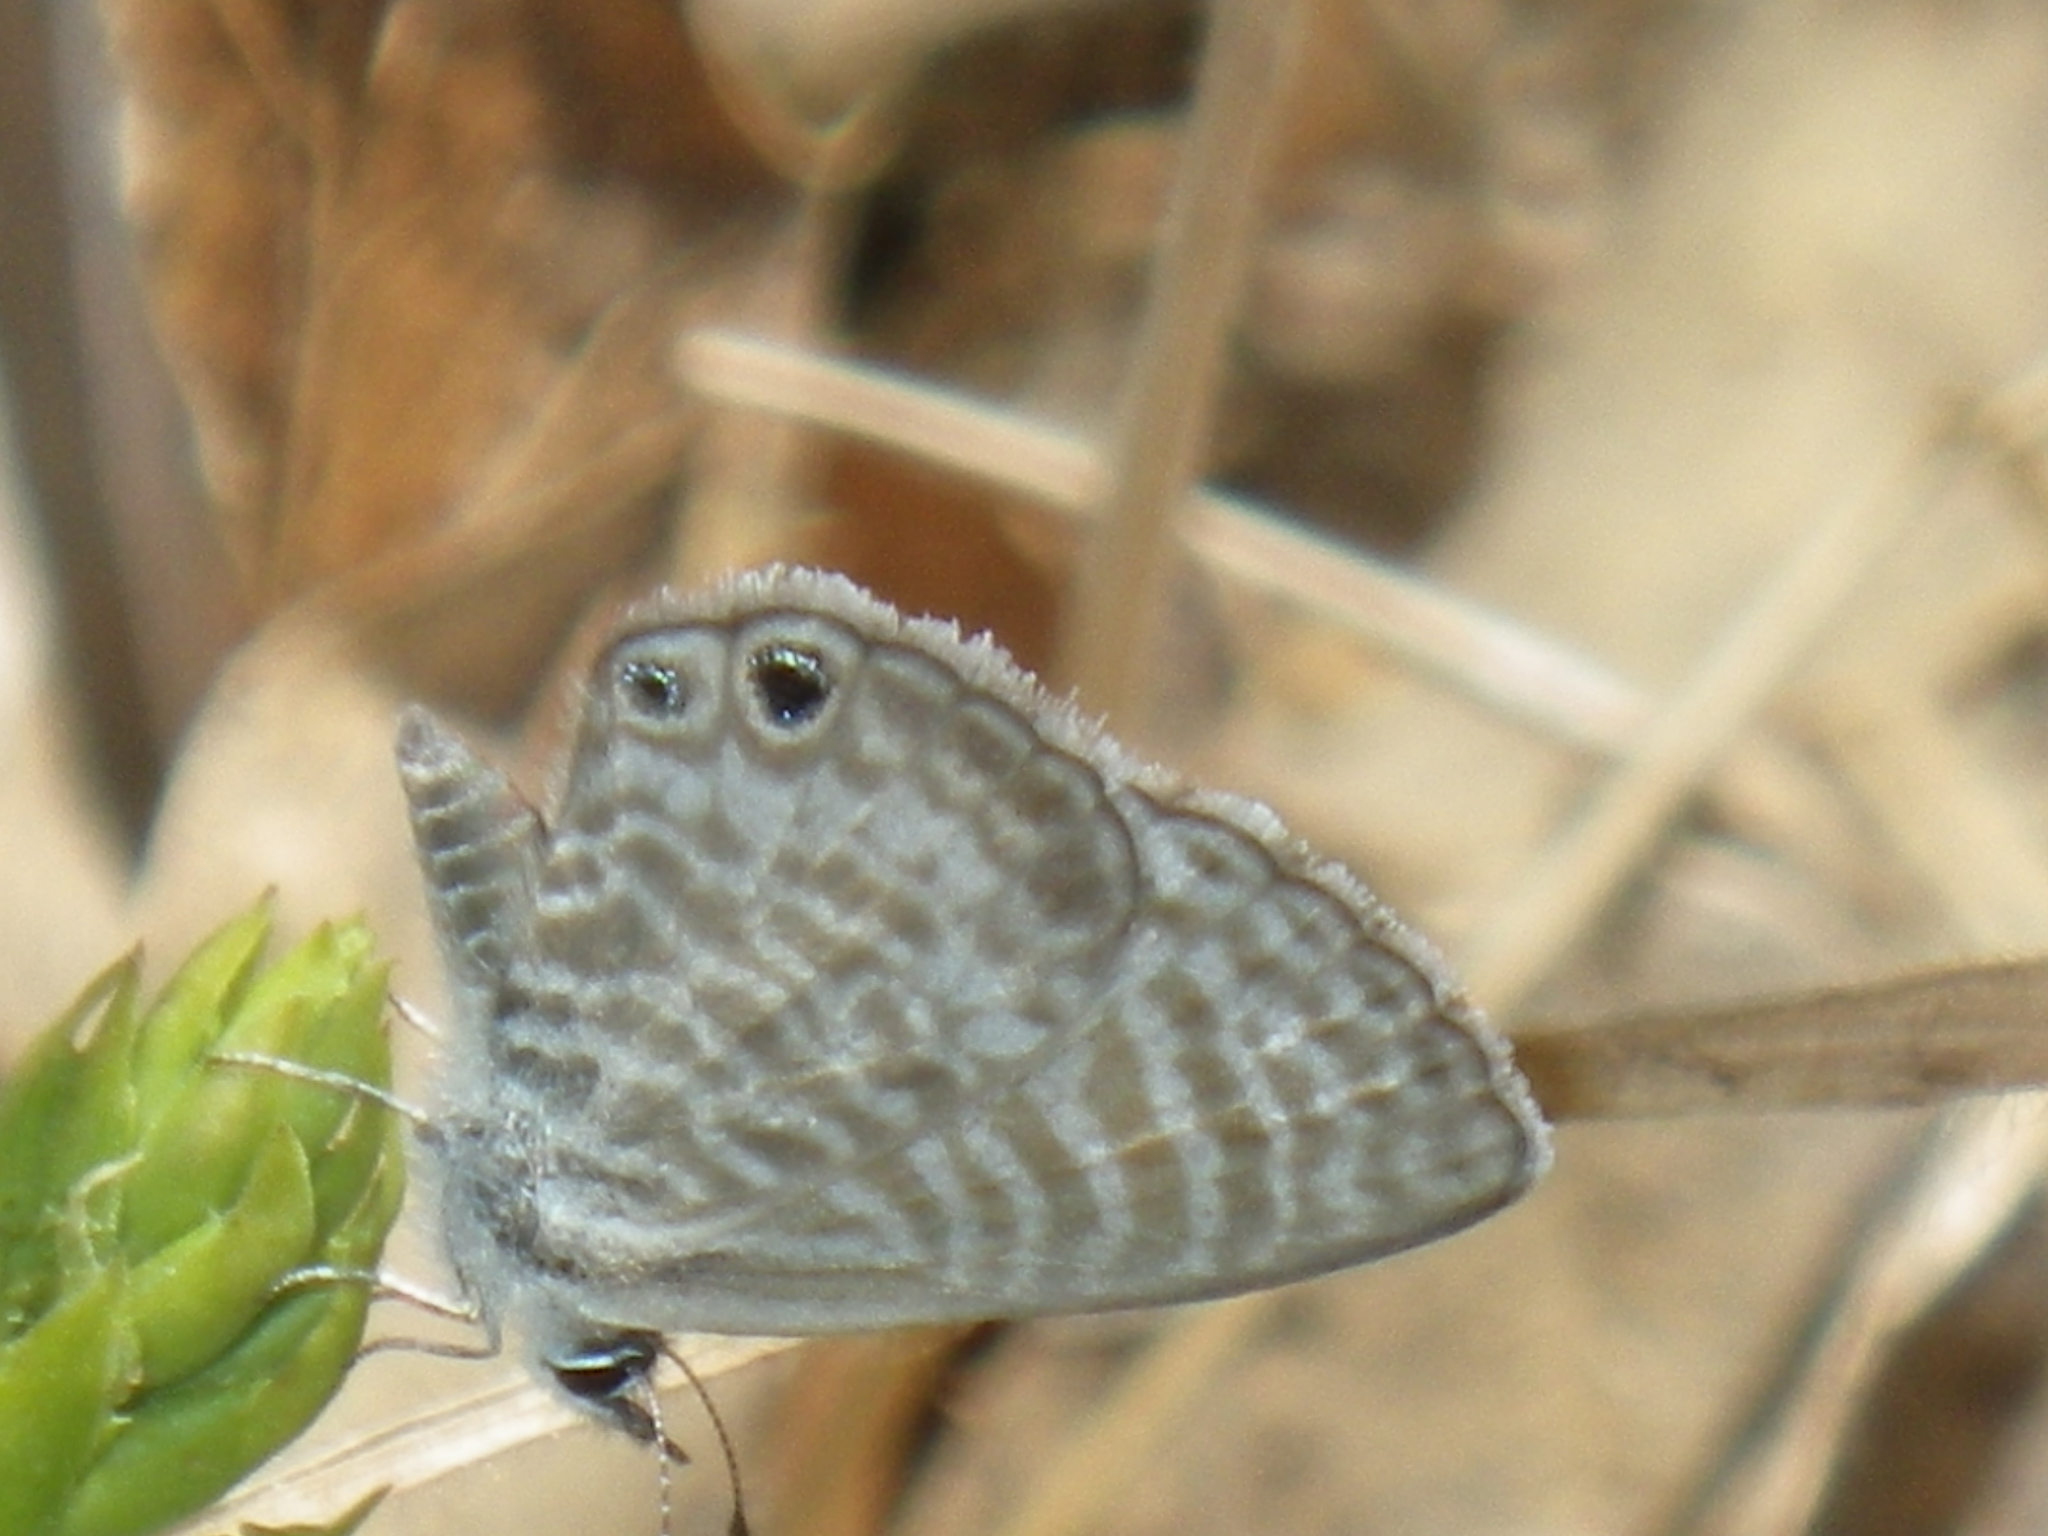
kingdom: Animalia
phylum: Arthropoda
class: Insecta
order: Lepidoptera
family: Lycaenidae
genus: Leptotes
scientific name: Leptotes marina
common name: Marine blue
